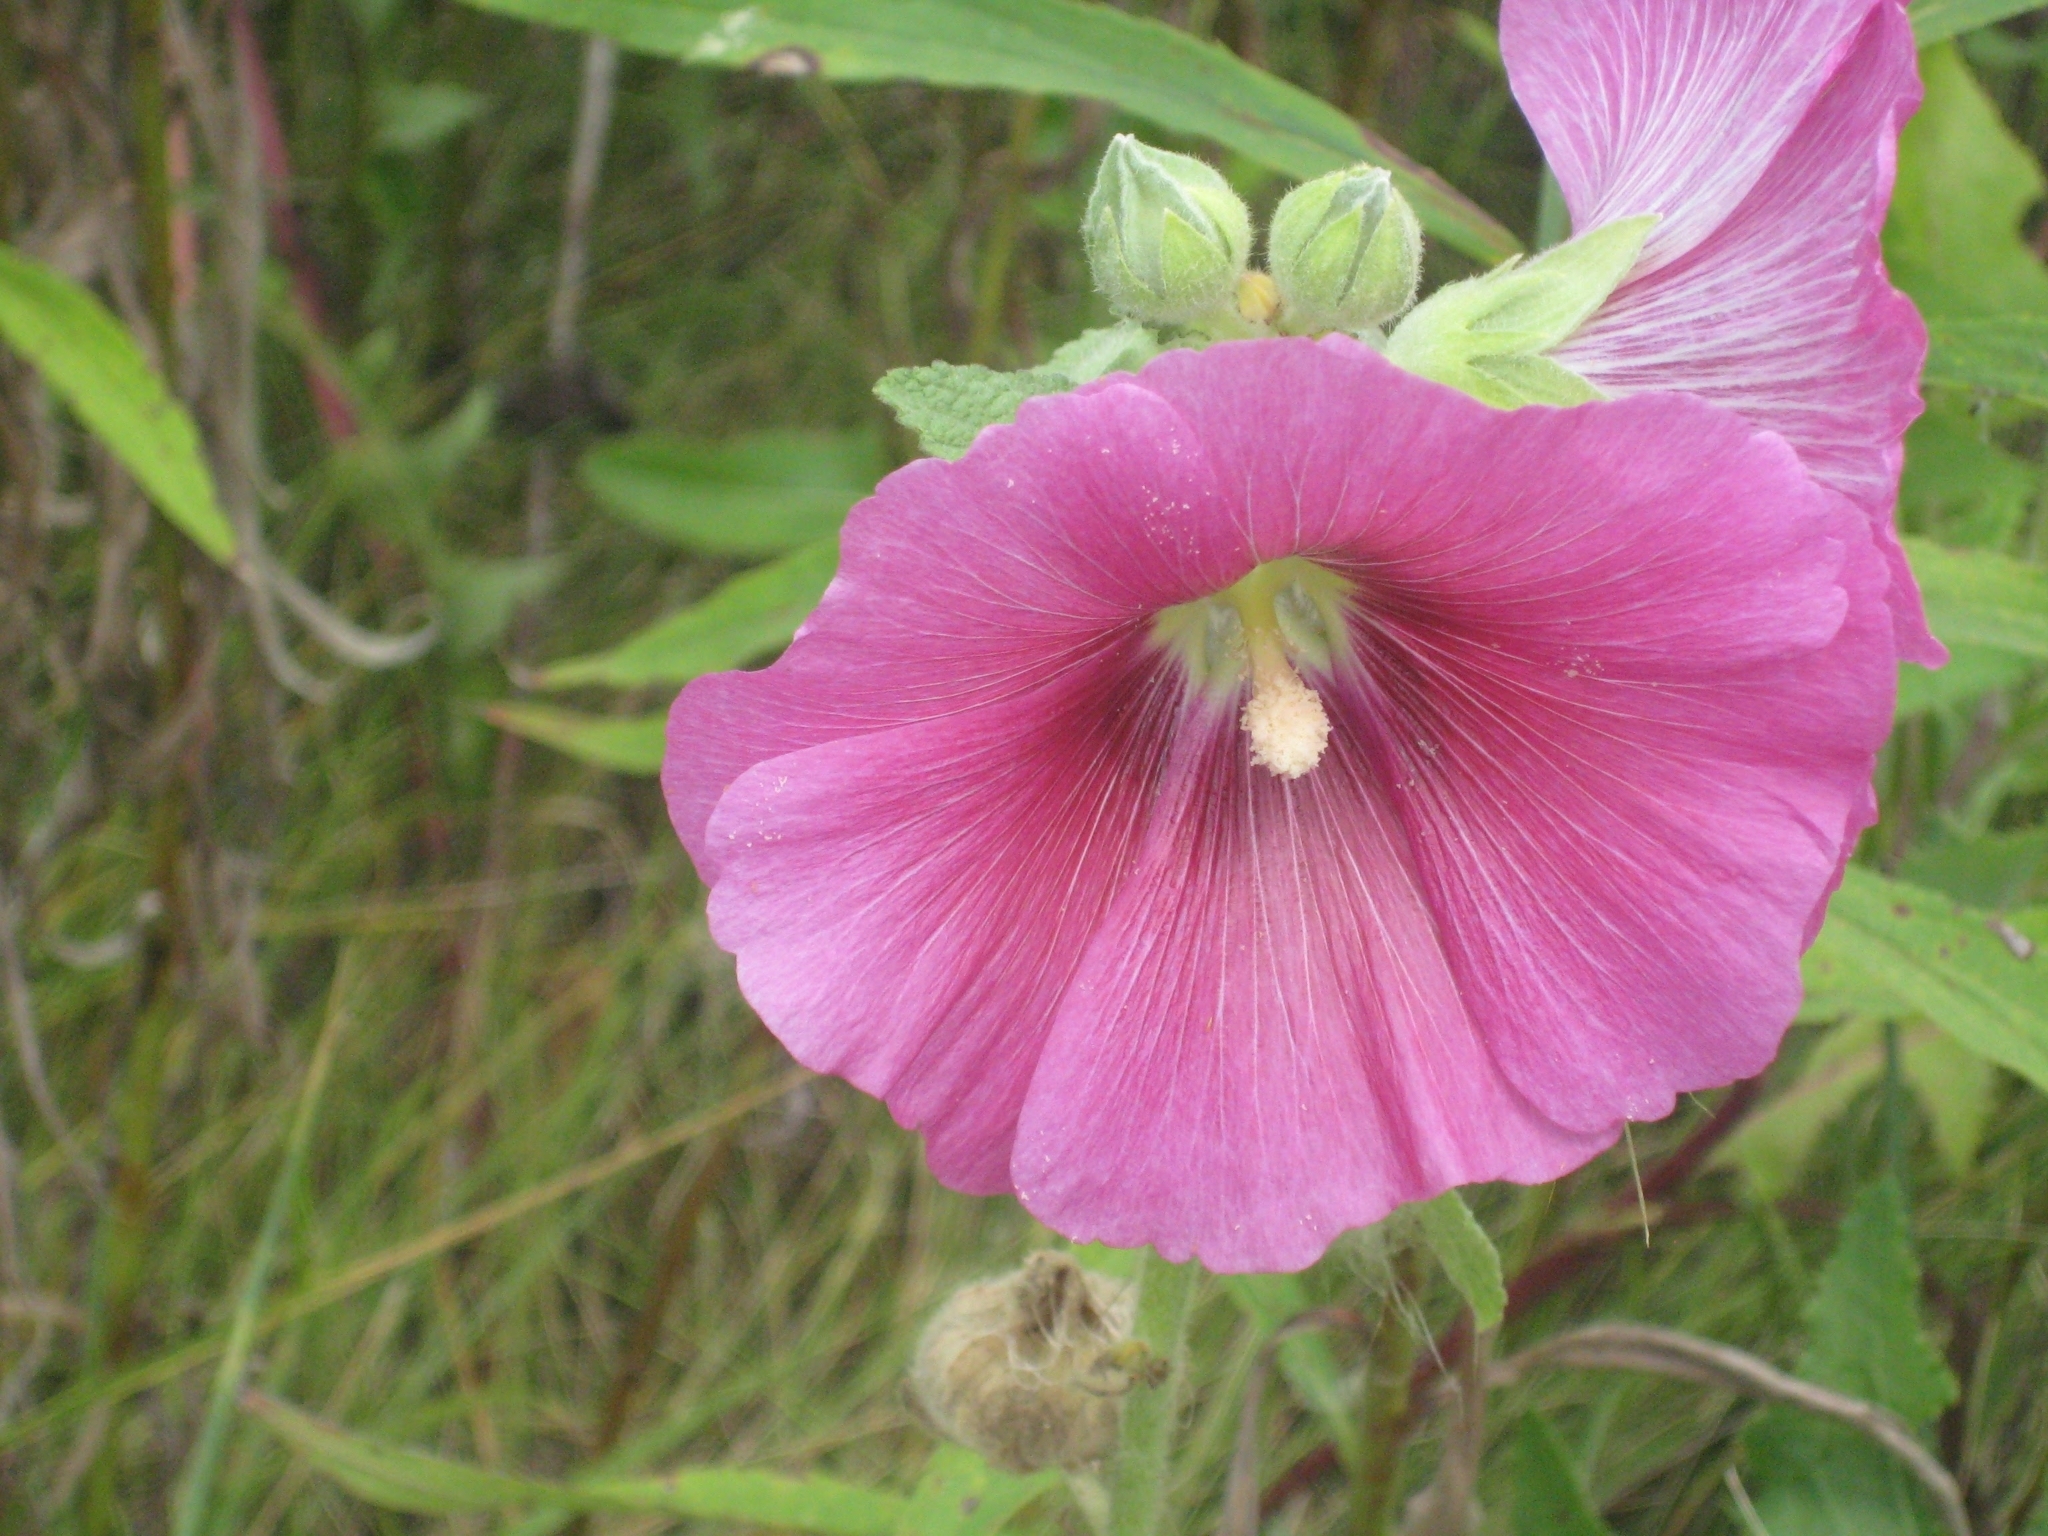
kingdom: Plantae
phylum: Tracheophyta
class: Magnoliopsida
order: Malvales
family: Malvaceae
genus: Alcea
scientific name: Alcea rosea
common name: Hollyhock
